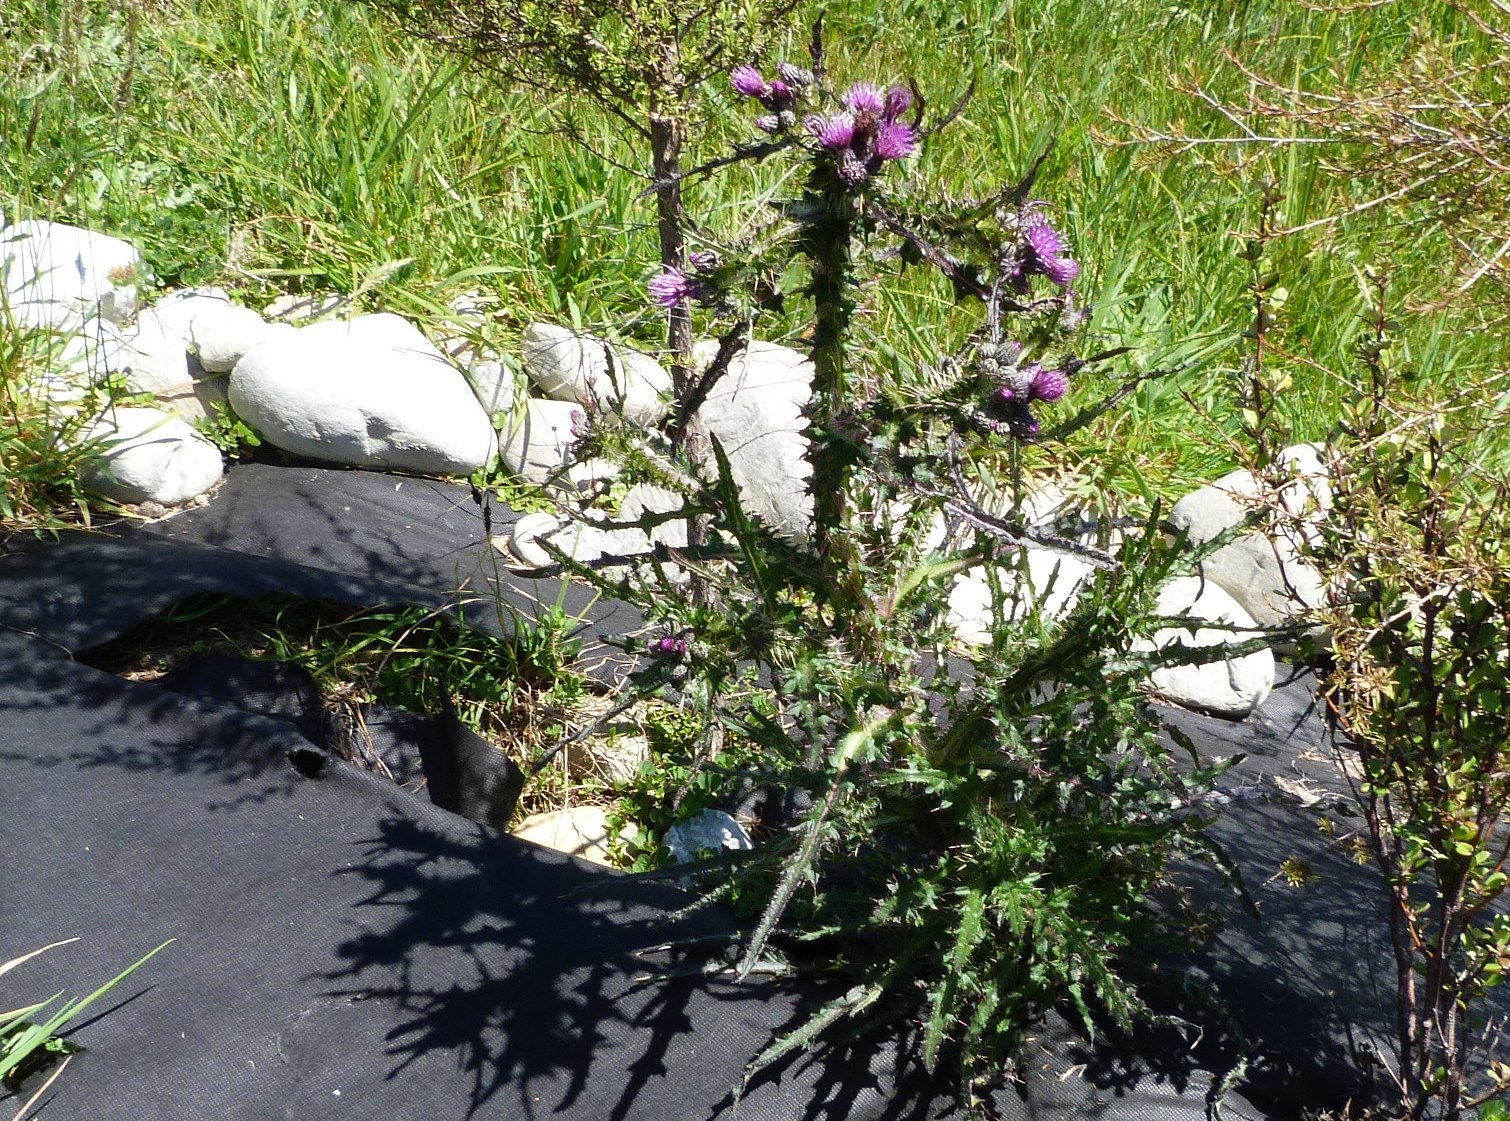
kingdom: Plantae
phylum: Tracheophyta
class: Magnoliopsida
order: Asterales
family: Asteraceae
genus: Cirsium
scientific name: Cirsium palustre
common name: Marsh thistle
